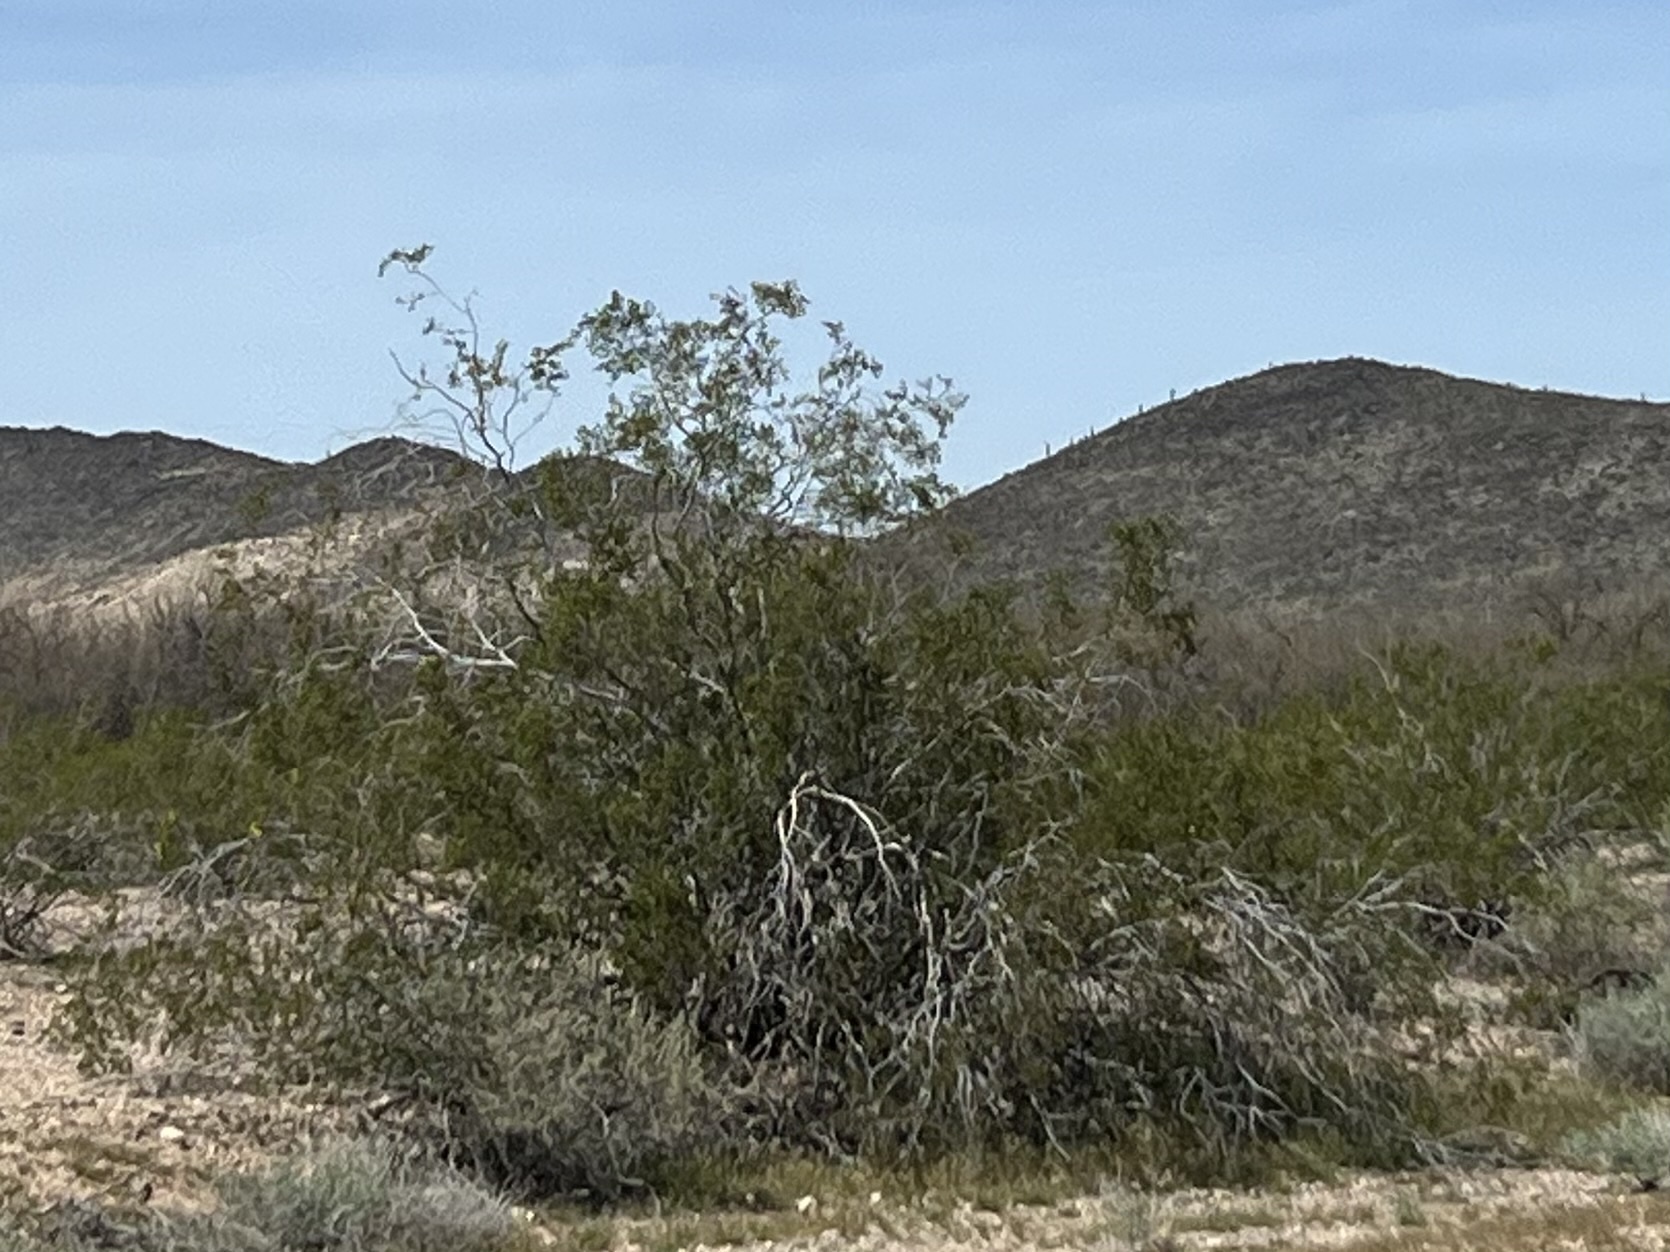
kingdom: Plantae
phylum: Tracheophyta
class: Magnoliopsida
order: Zygophyllales
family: Zygophyllaceae
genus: Larrea
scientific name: Larrea tridentata
